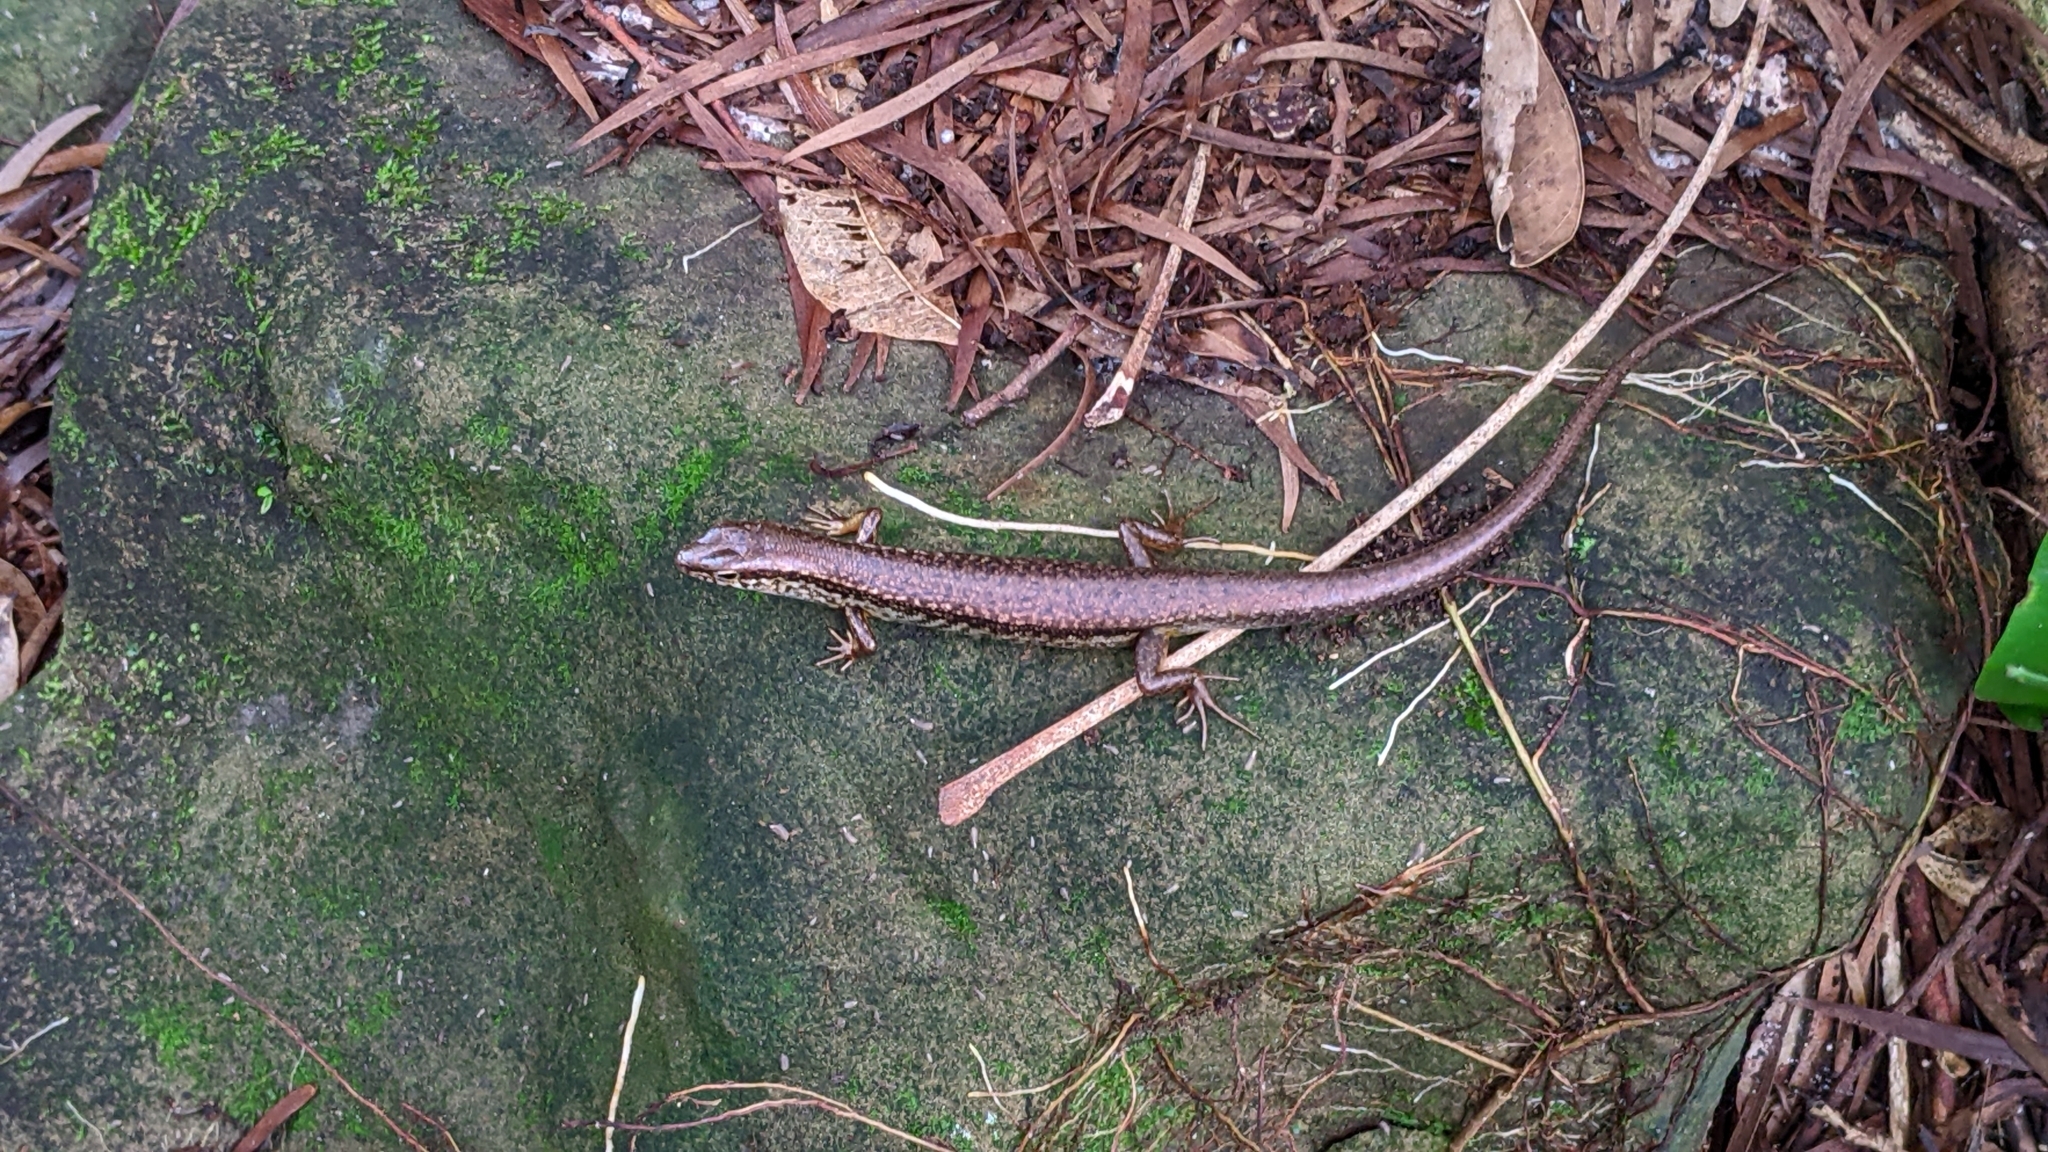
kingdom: Animalia
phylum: Chordata
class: Squamata
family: Scincidae
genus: Sphenomorphus
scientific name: Sphenomorphus indicus
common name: Himalayan forest skink
